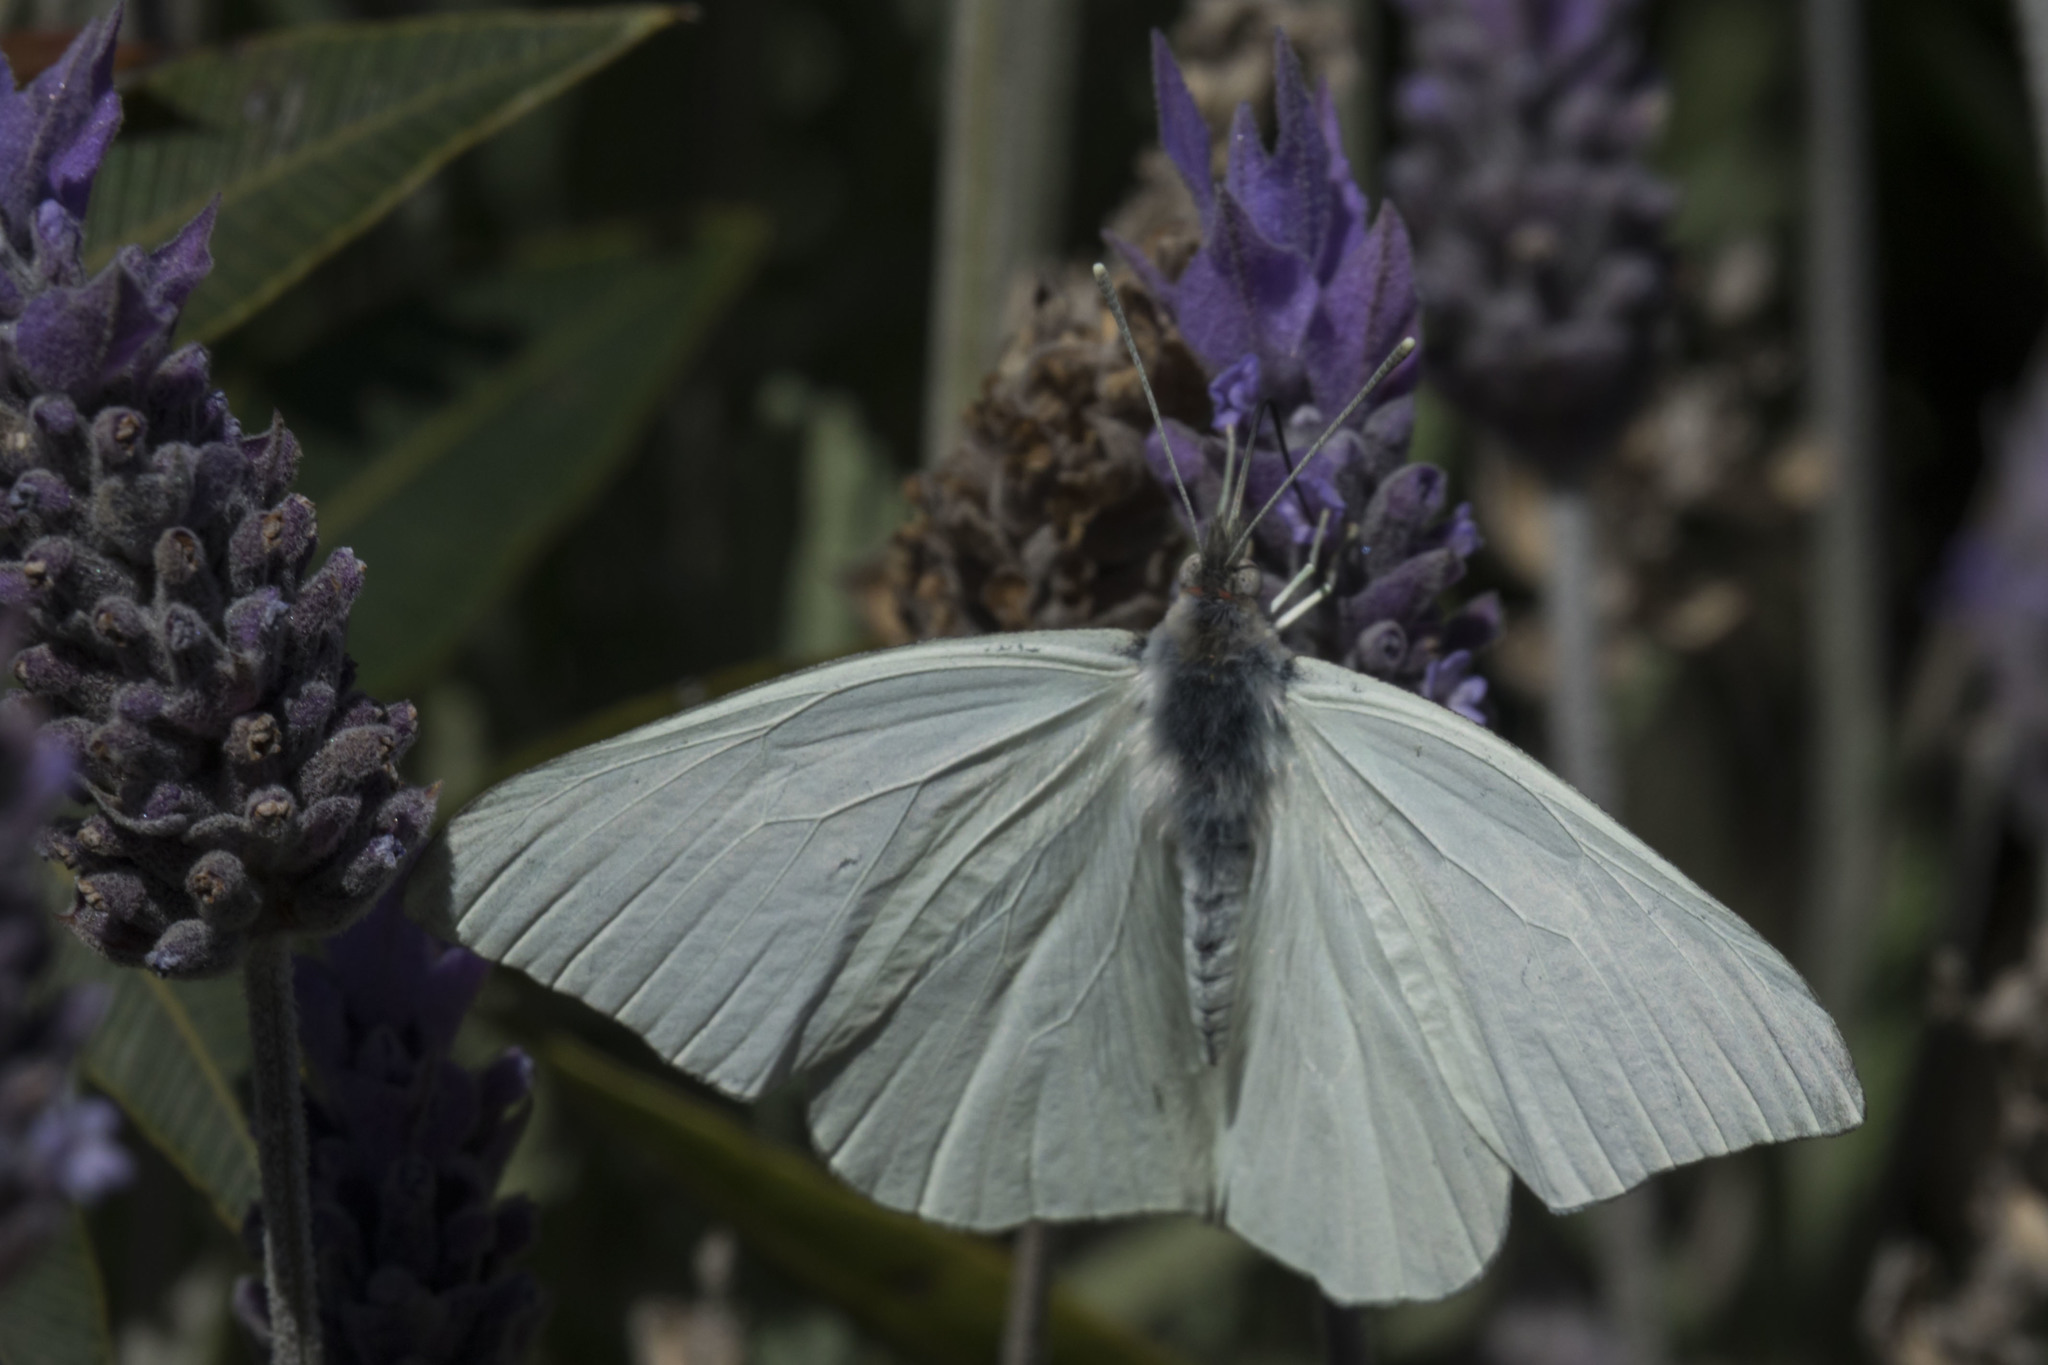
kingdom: Animalia
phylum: Arthropoda
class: Insecta
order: Lepidoptera
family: Pieridae
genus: Mathania
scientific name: Mathania carrizoi
